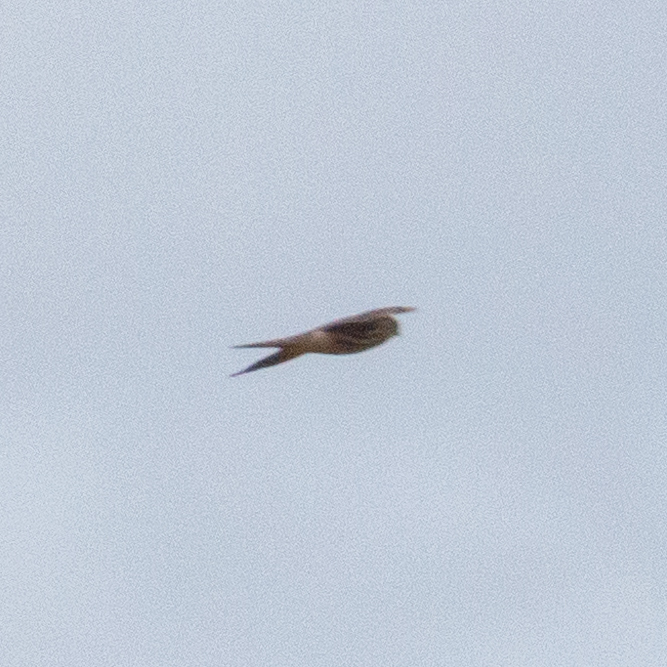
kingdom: Animalia
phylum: Chordata
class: Aves
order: Falconiformes
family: Falconidae
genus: Falco
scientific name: Falco columbarius
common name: Merlin
